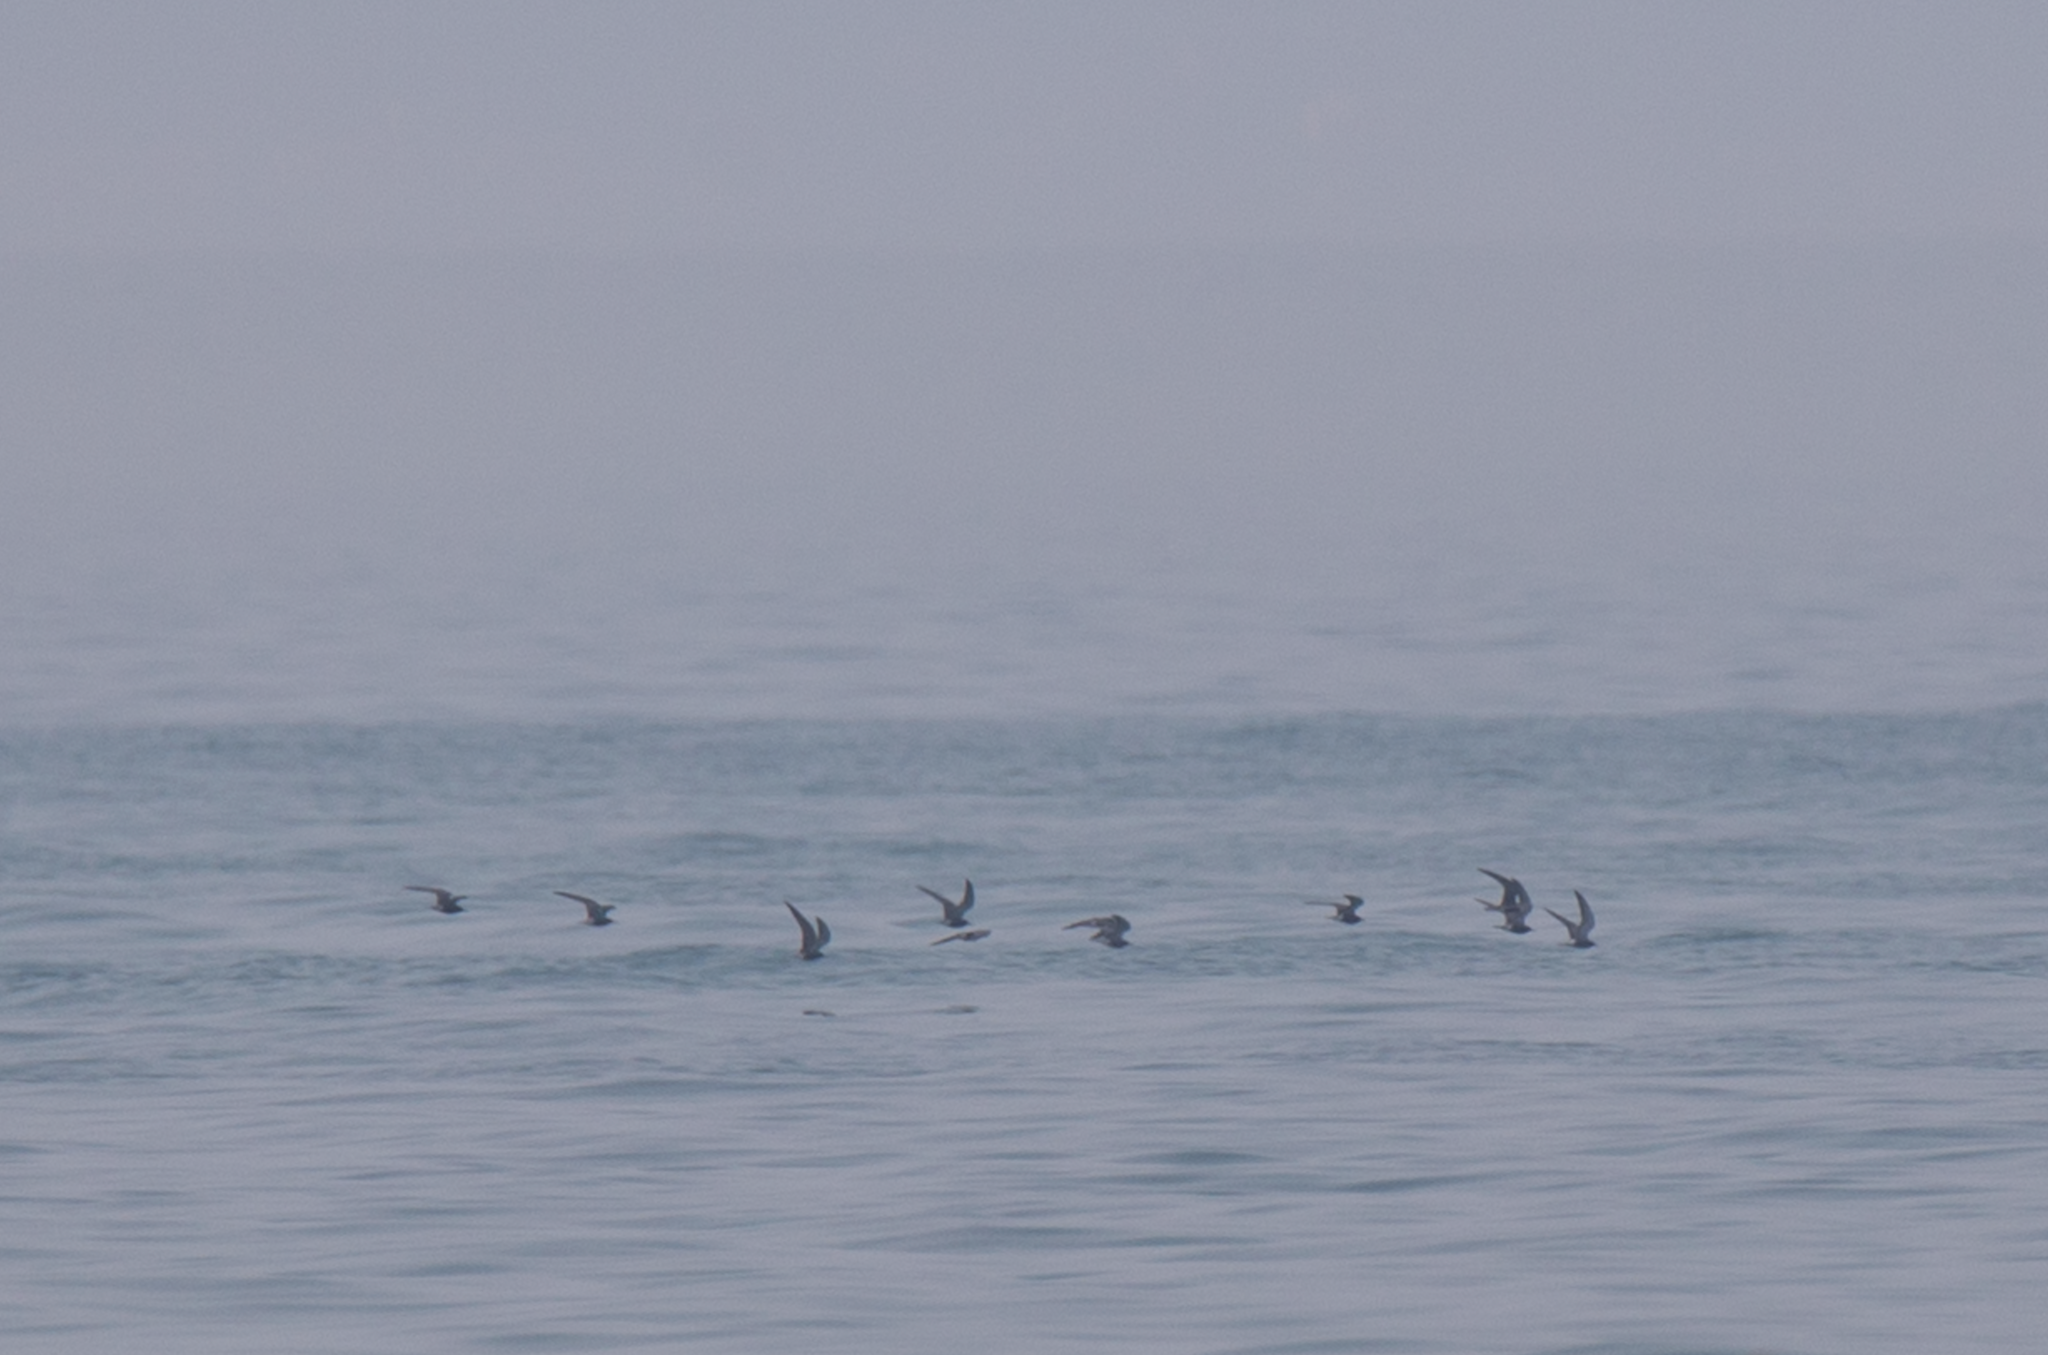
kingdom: Animalia
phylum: Chordata
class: Aves
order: Charadriiformes
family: Laridae
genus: Chlidonias
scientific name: Chlidonias niger
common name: Black tern
